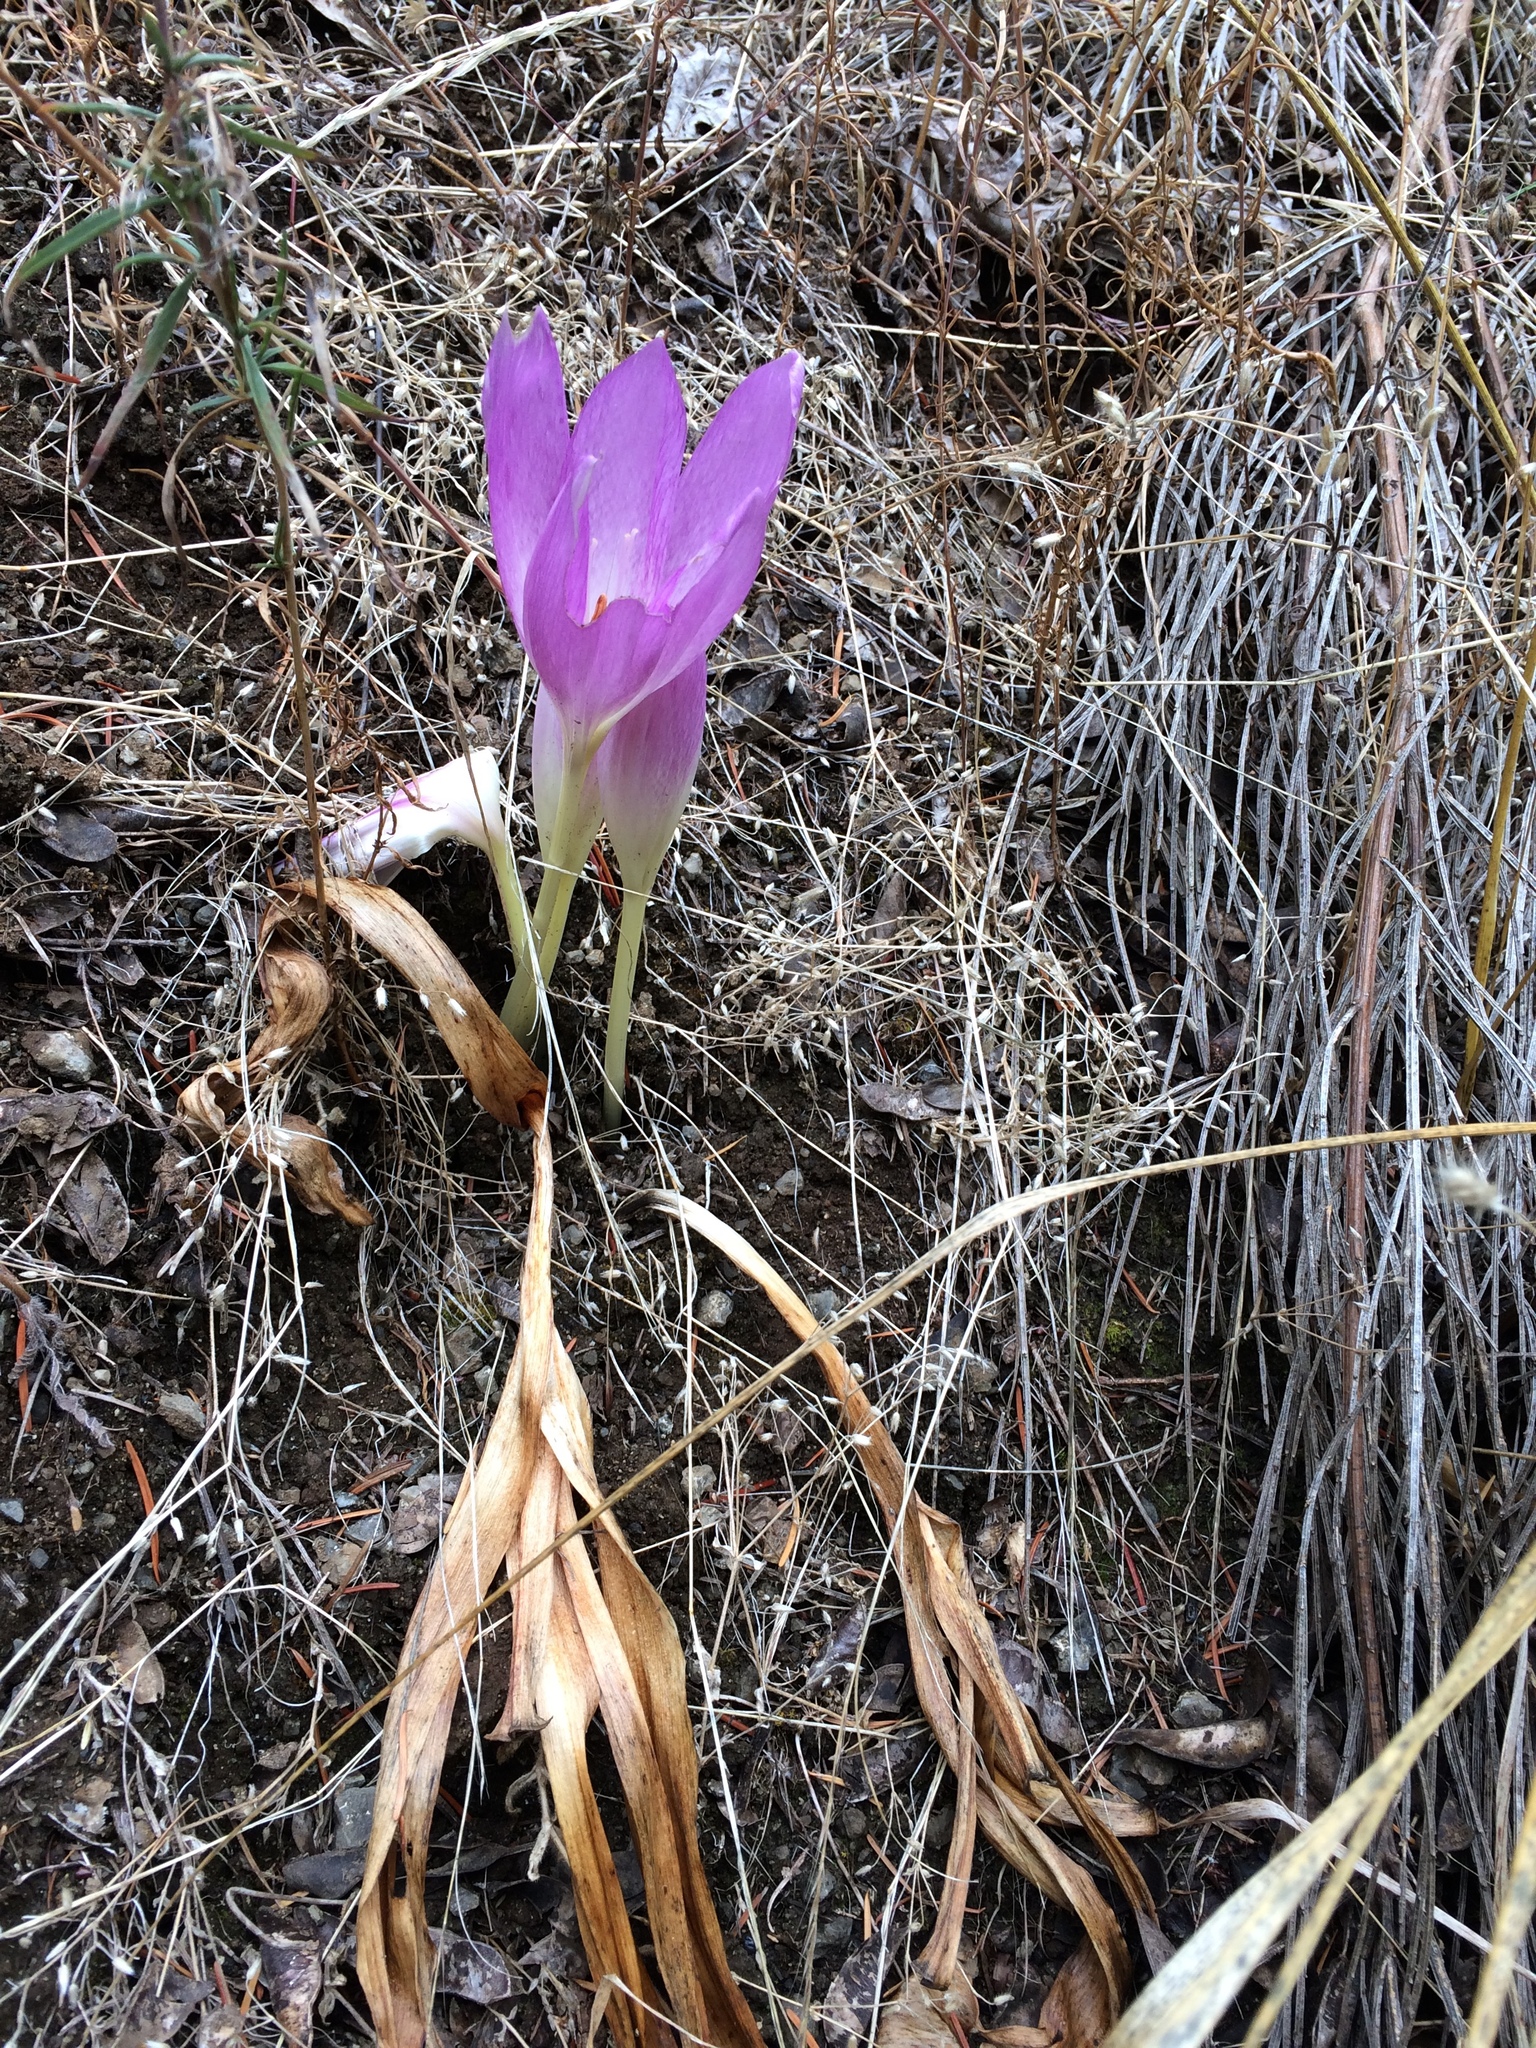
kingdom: Plantae
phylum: Tracheophyta
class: Liliopsida
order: Liliales
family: Colchicaceae
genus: Colchicum
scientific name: Colchicum
